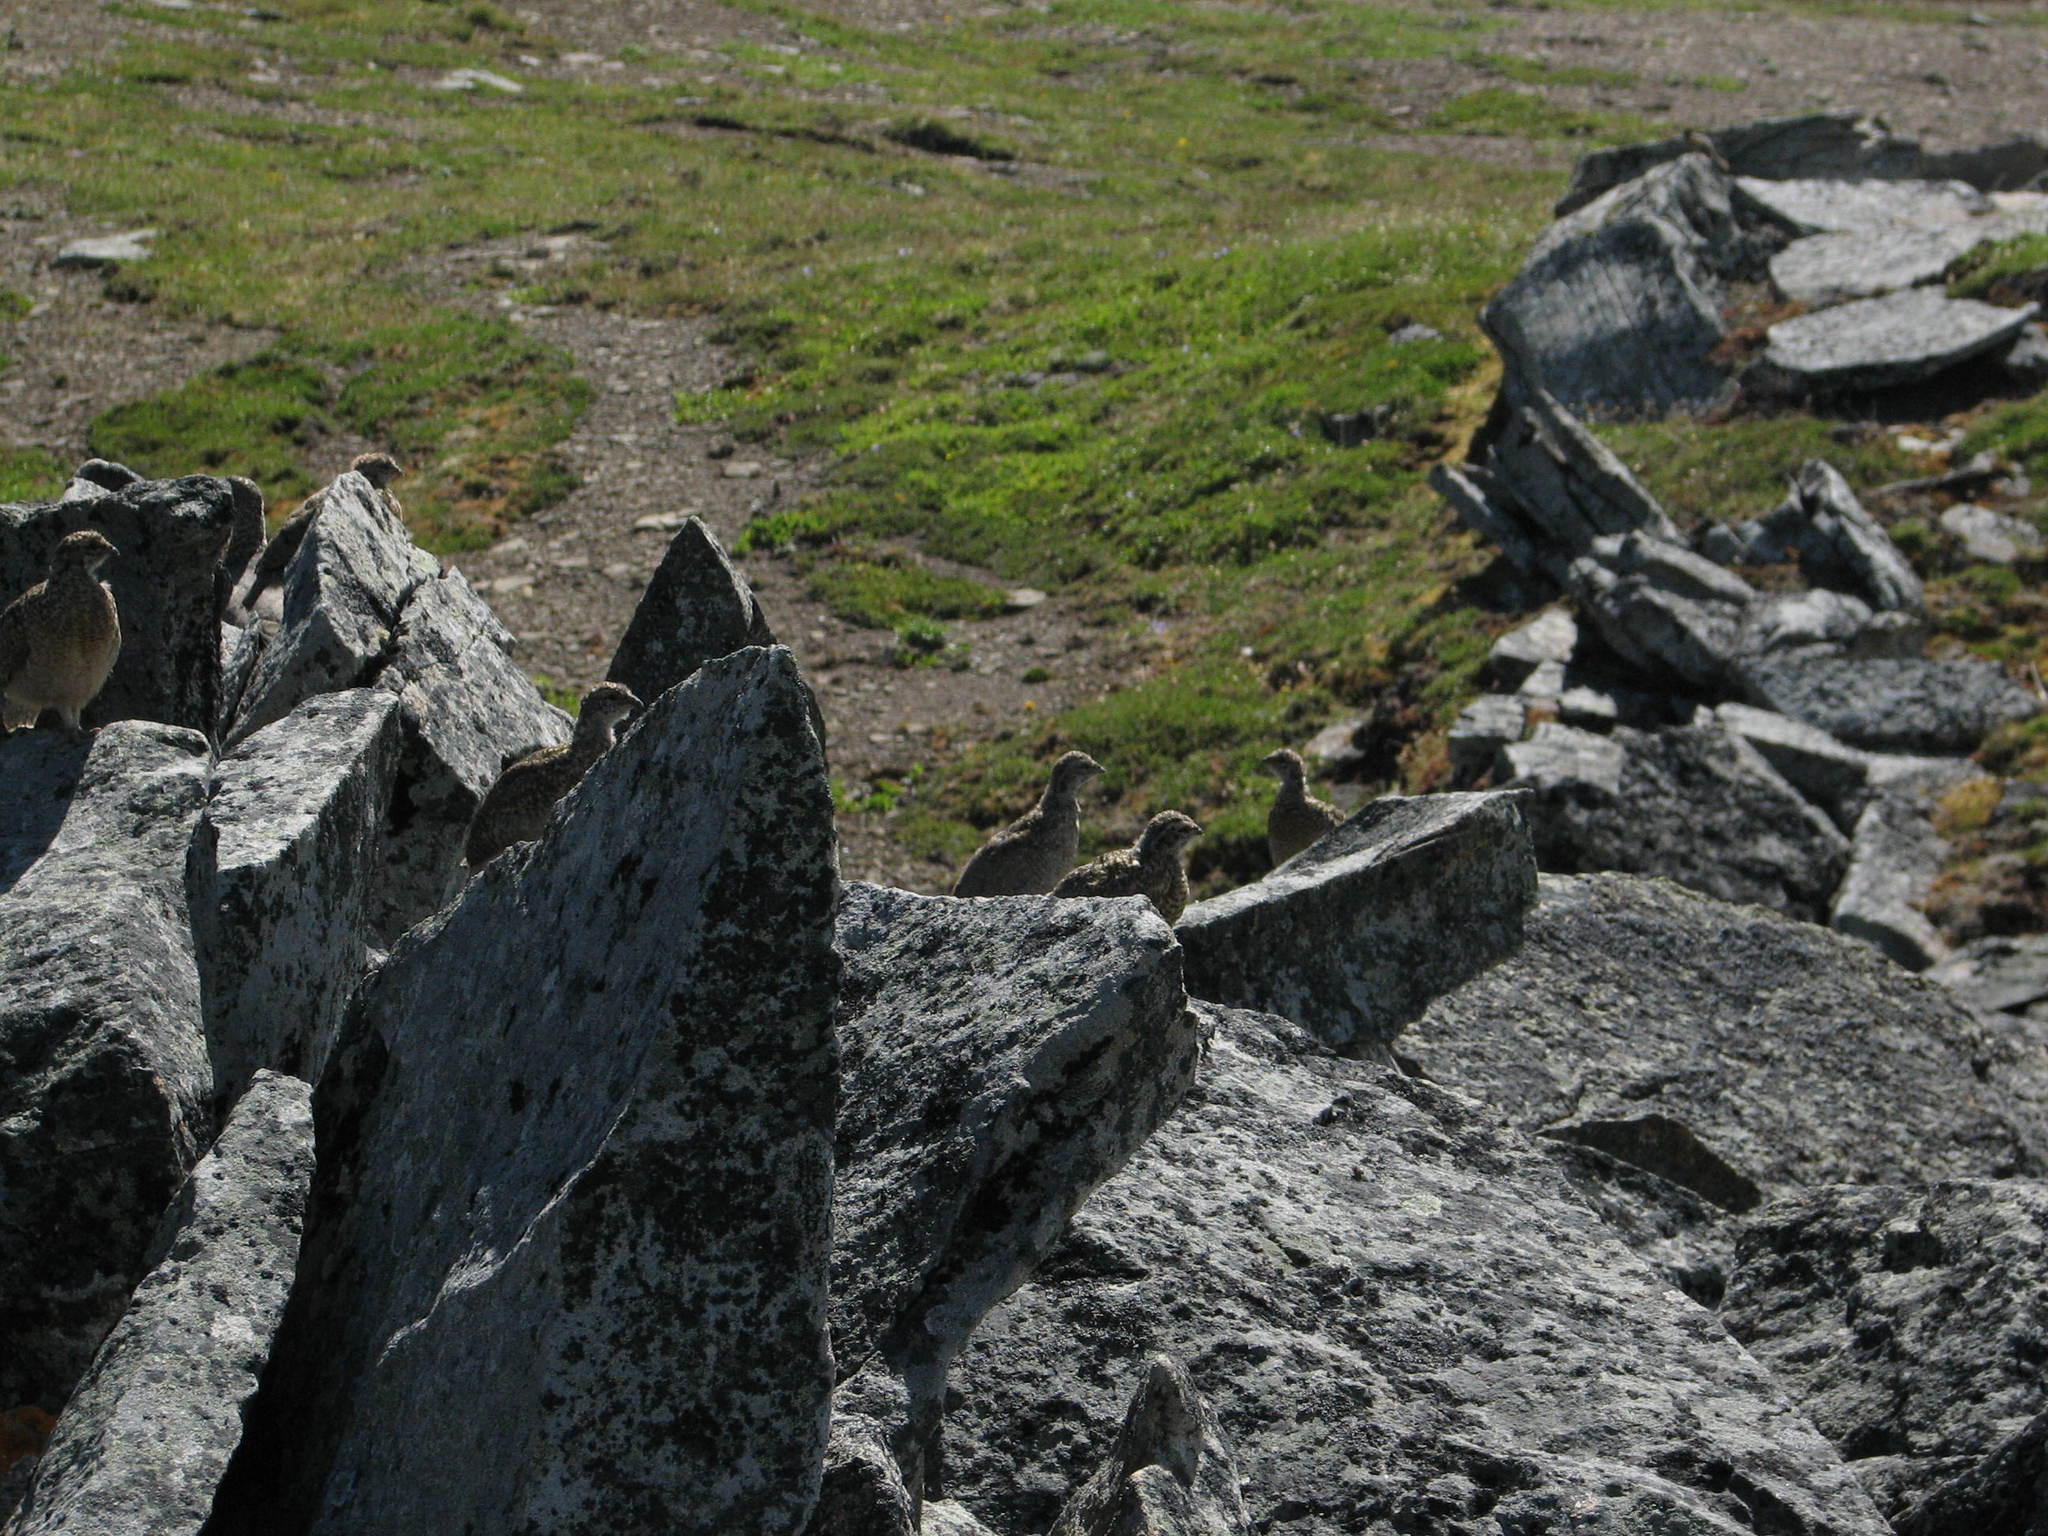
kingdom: Animalia
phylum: Chordata
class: Aves
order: Galliformes
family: Phasianidae
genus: Lagopus
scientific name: Lagopus leucura
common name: White-tailed ptarmigan
